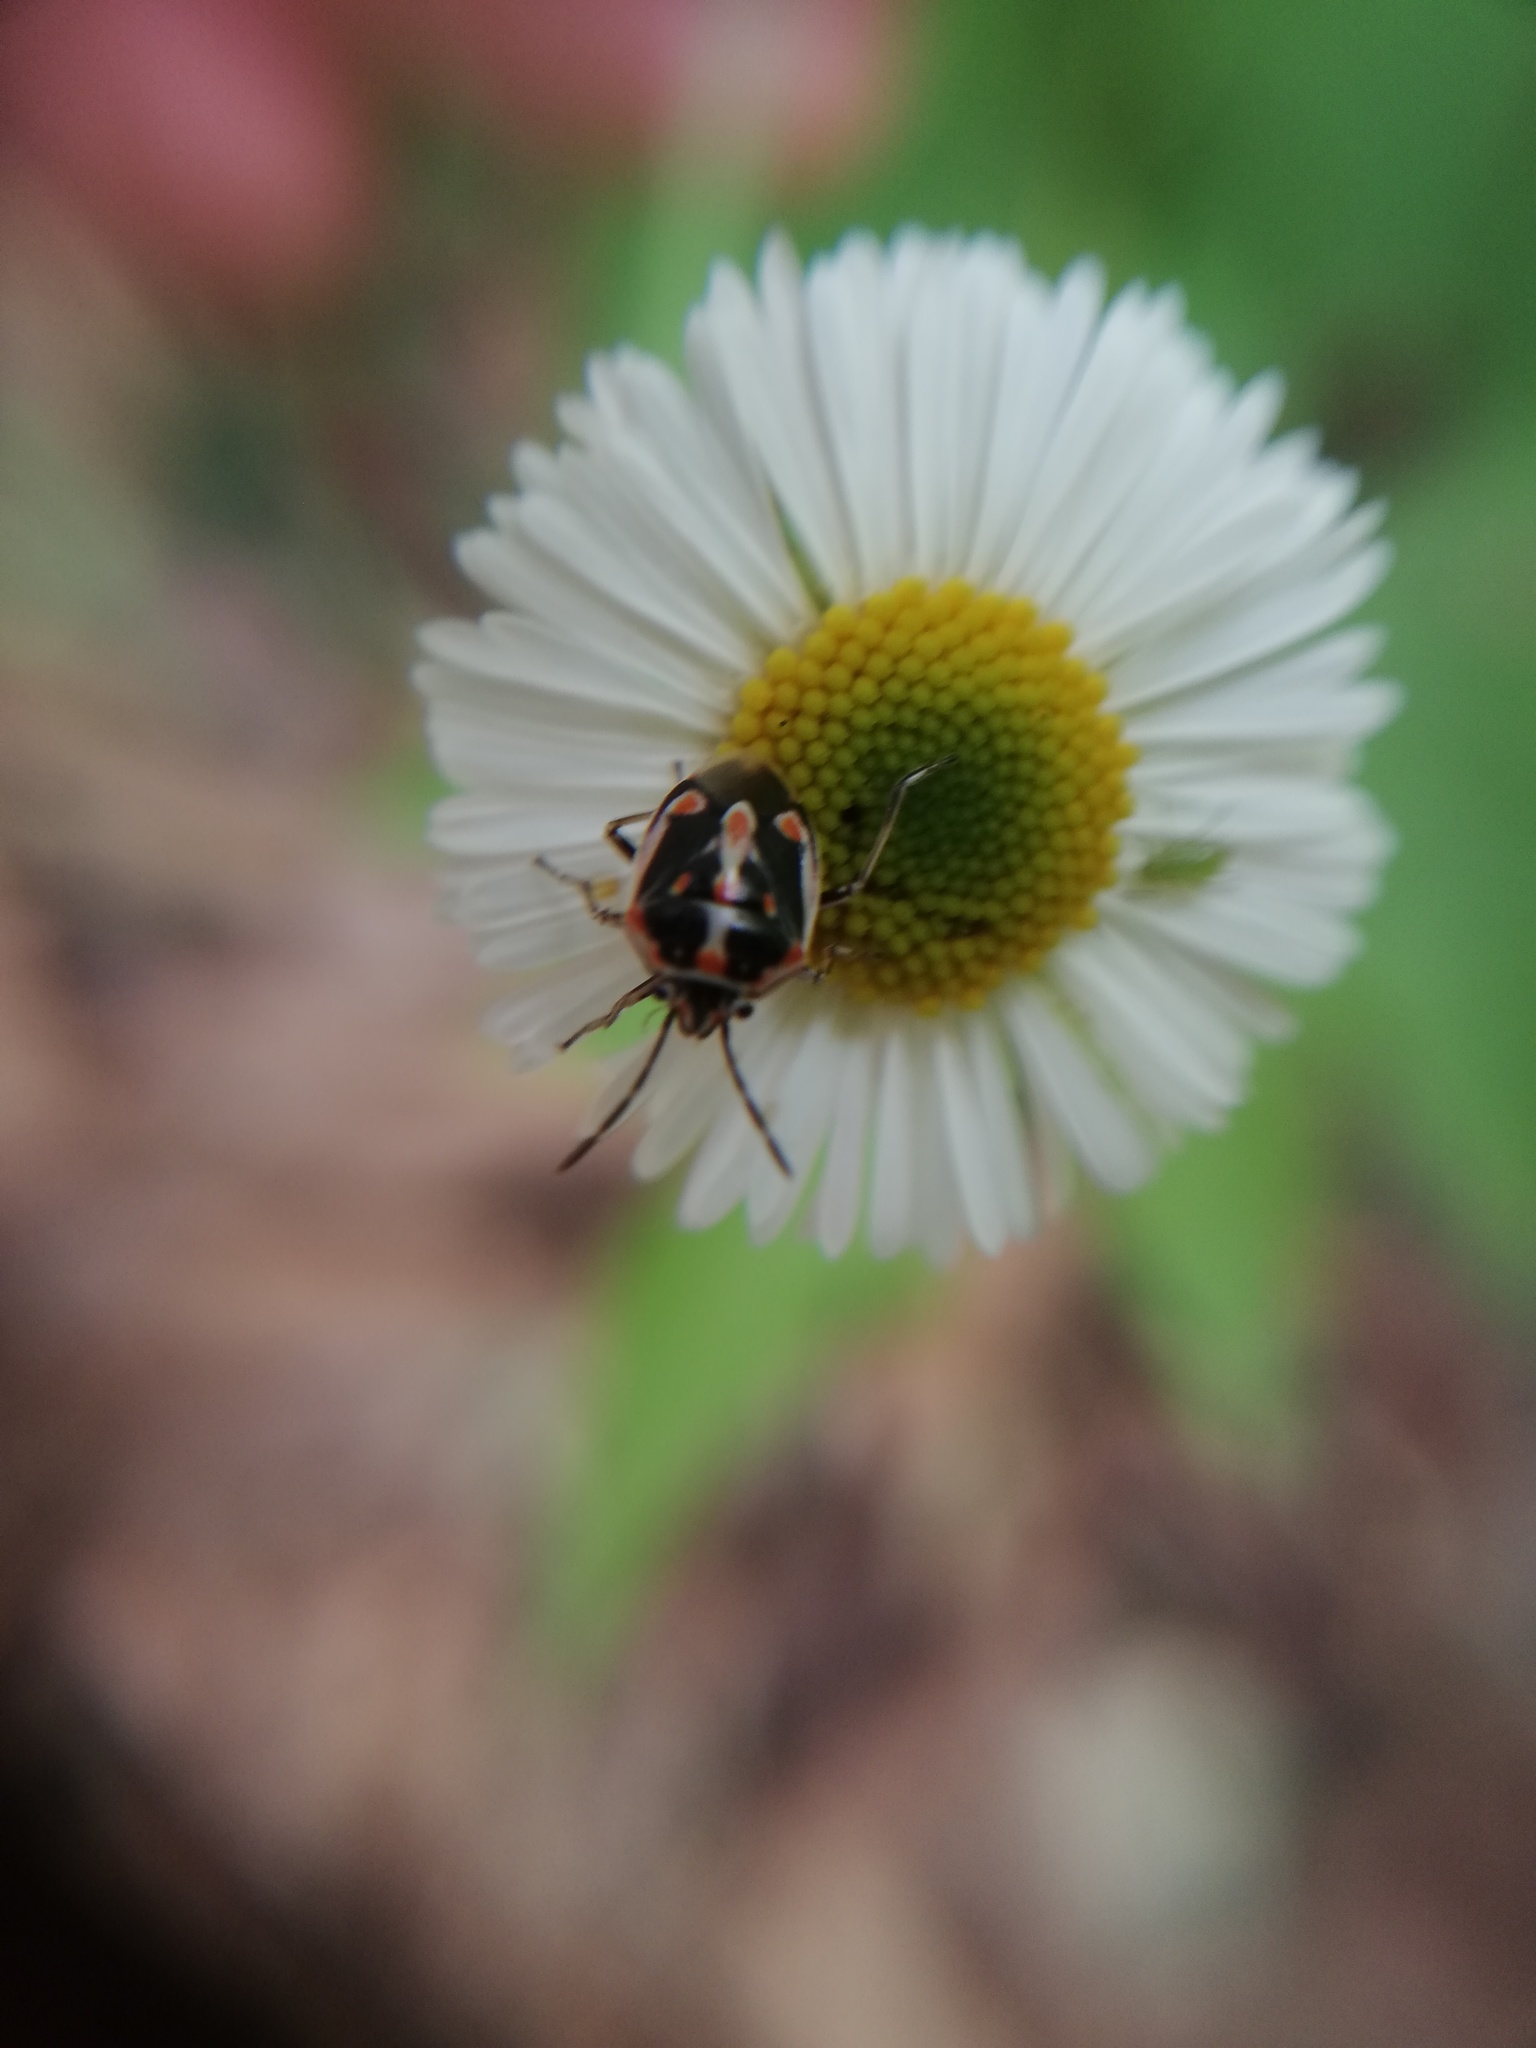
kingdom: Animalia
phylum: Arthropoda
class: Insecta
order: Hemiptera
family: Pentatomidae
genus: Bagrada
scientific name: Bagrada hilaris
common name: Bagrada bug
